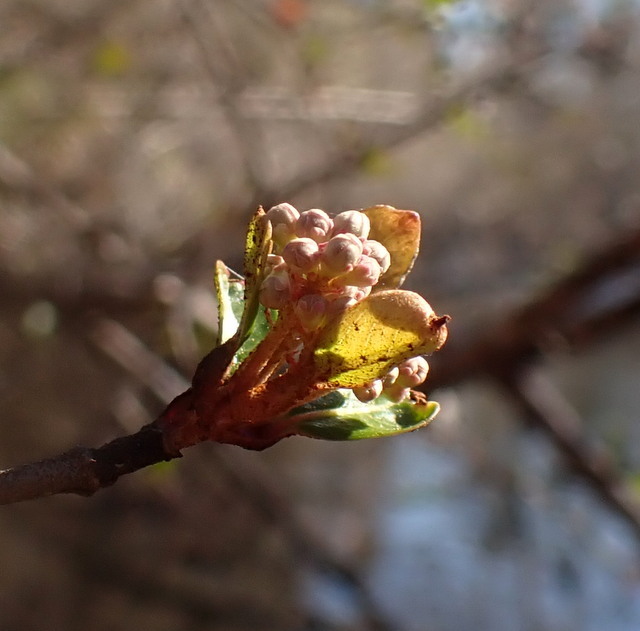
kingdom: Plantae
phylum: Tracheophyta
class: Magnoliopsida
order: Dipsacales
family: Viburnaceae
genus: Viburnum
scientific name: Viburnum obovatum
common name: Walter's viburnum
